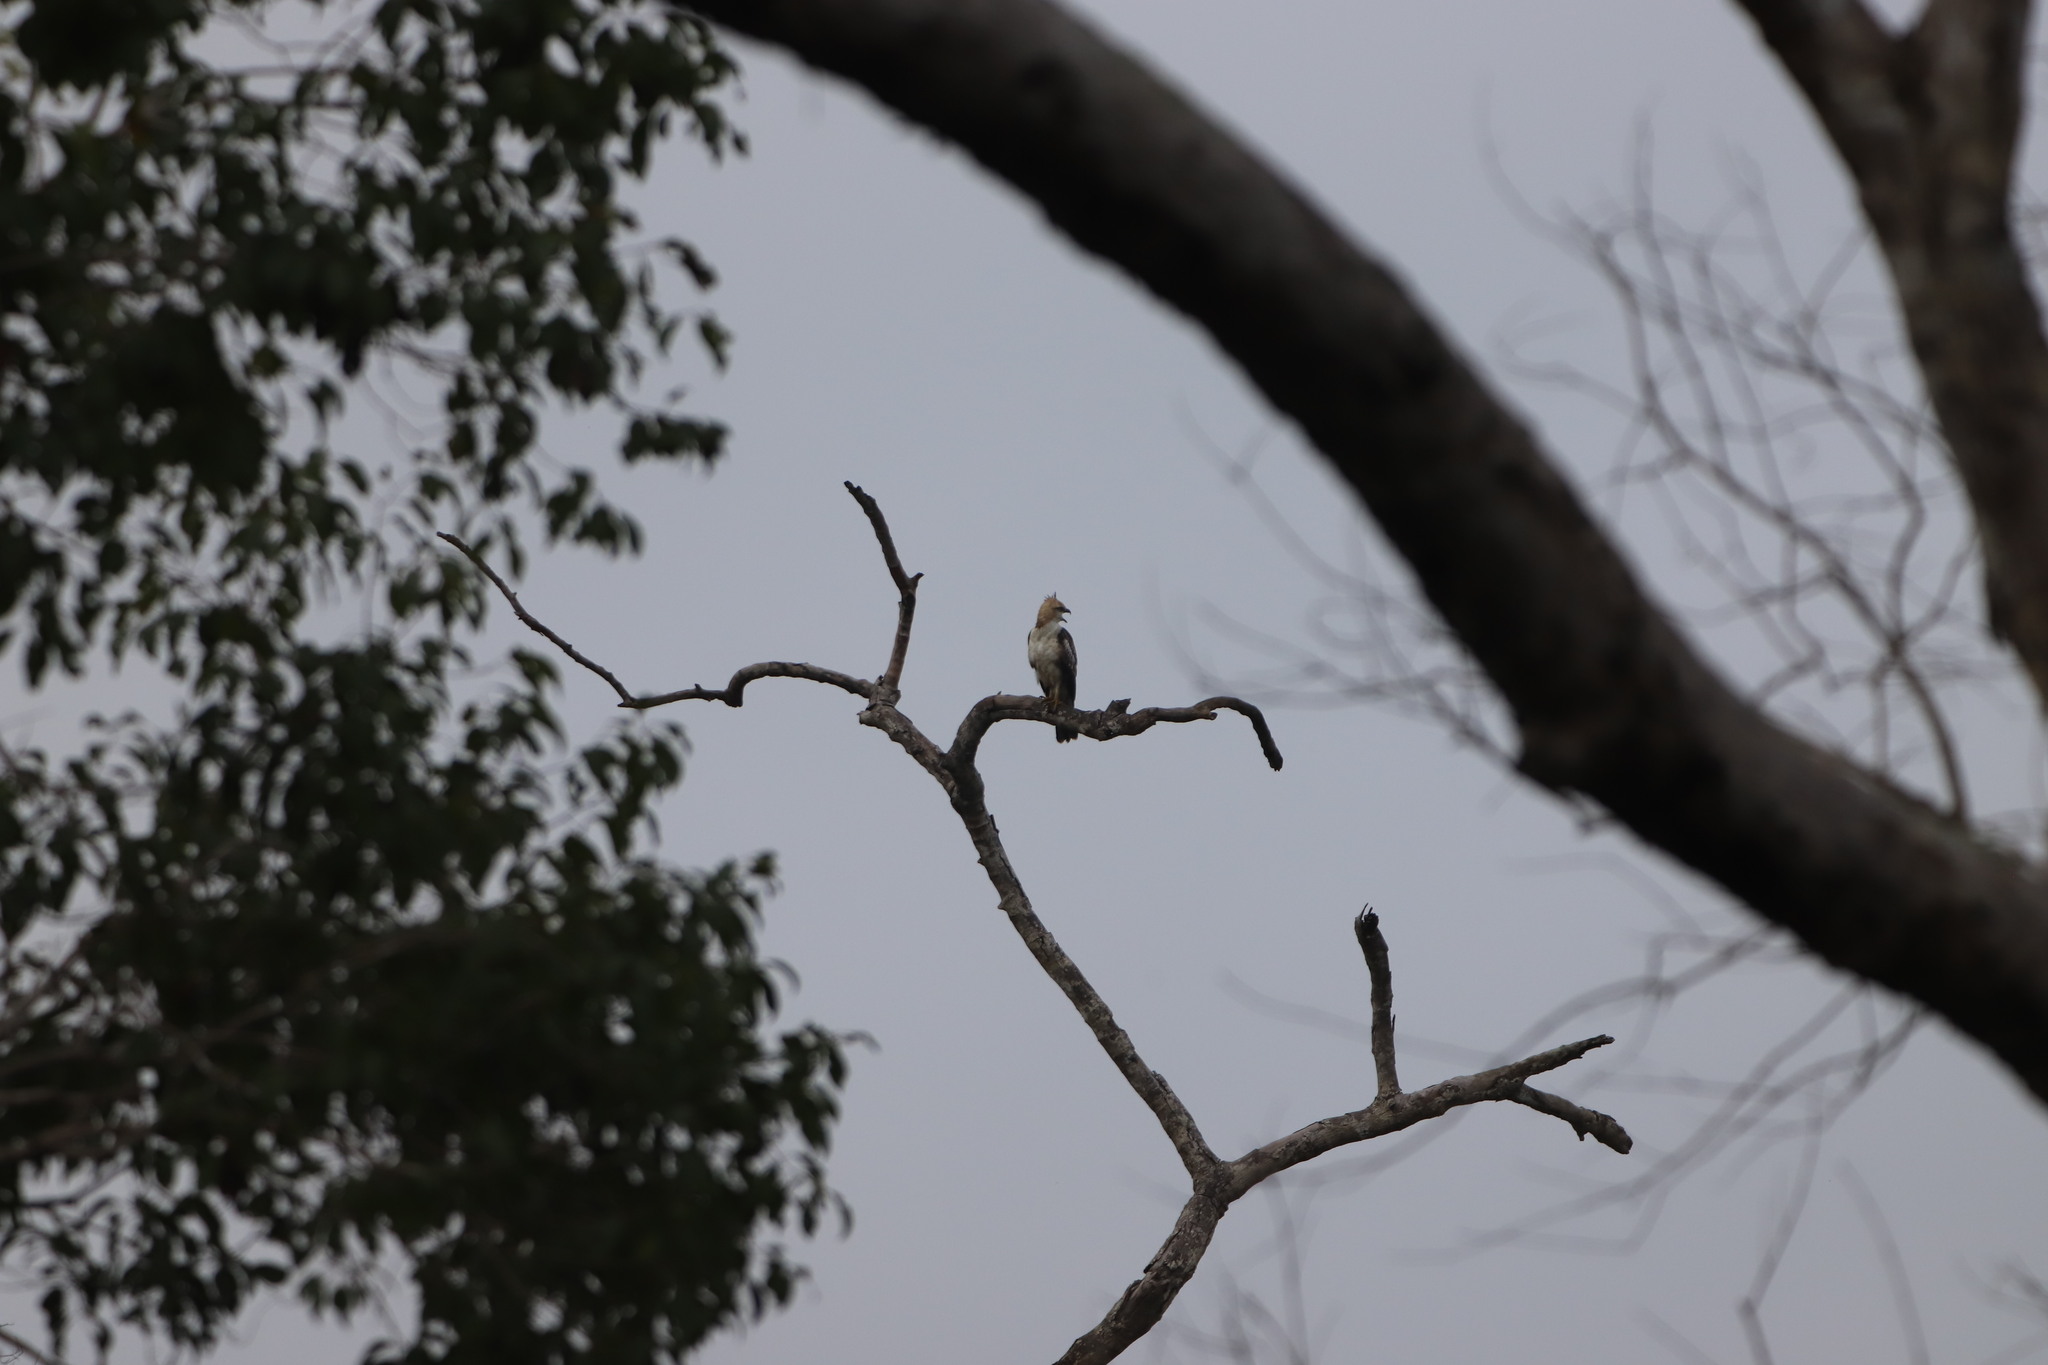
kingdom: Animalia
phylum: Chordata
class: Aves
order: Accipitriformes
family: Accipitridae
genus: Nisaetus
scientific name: Nisaetus cirrhatus
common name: Changeable hawk-eagle
